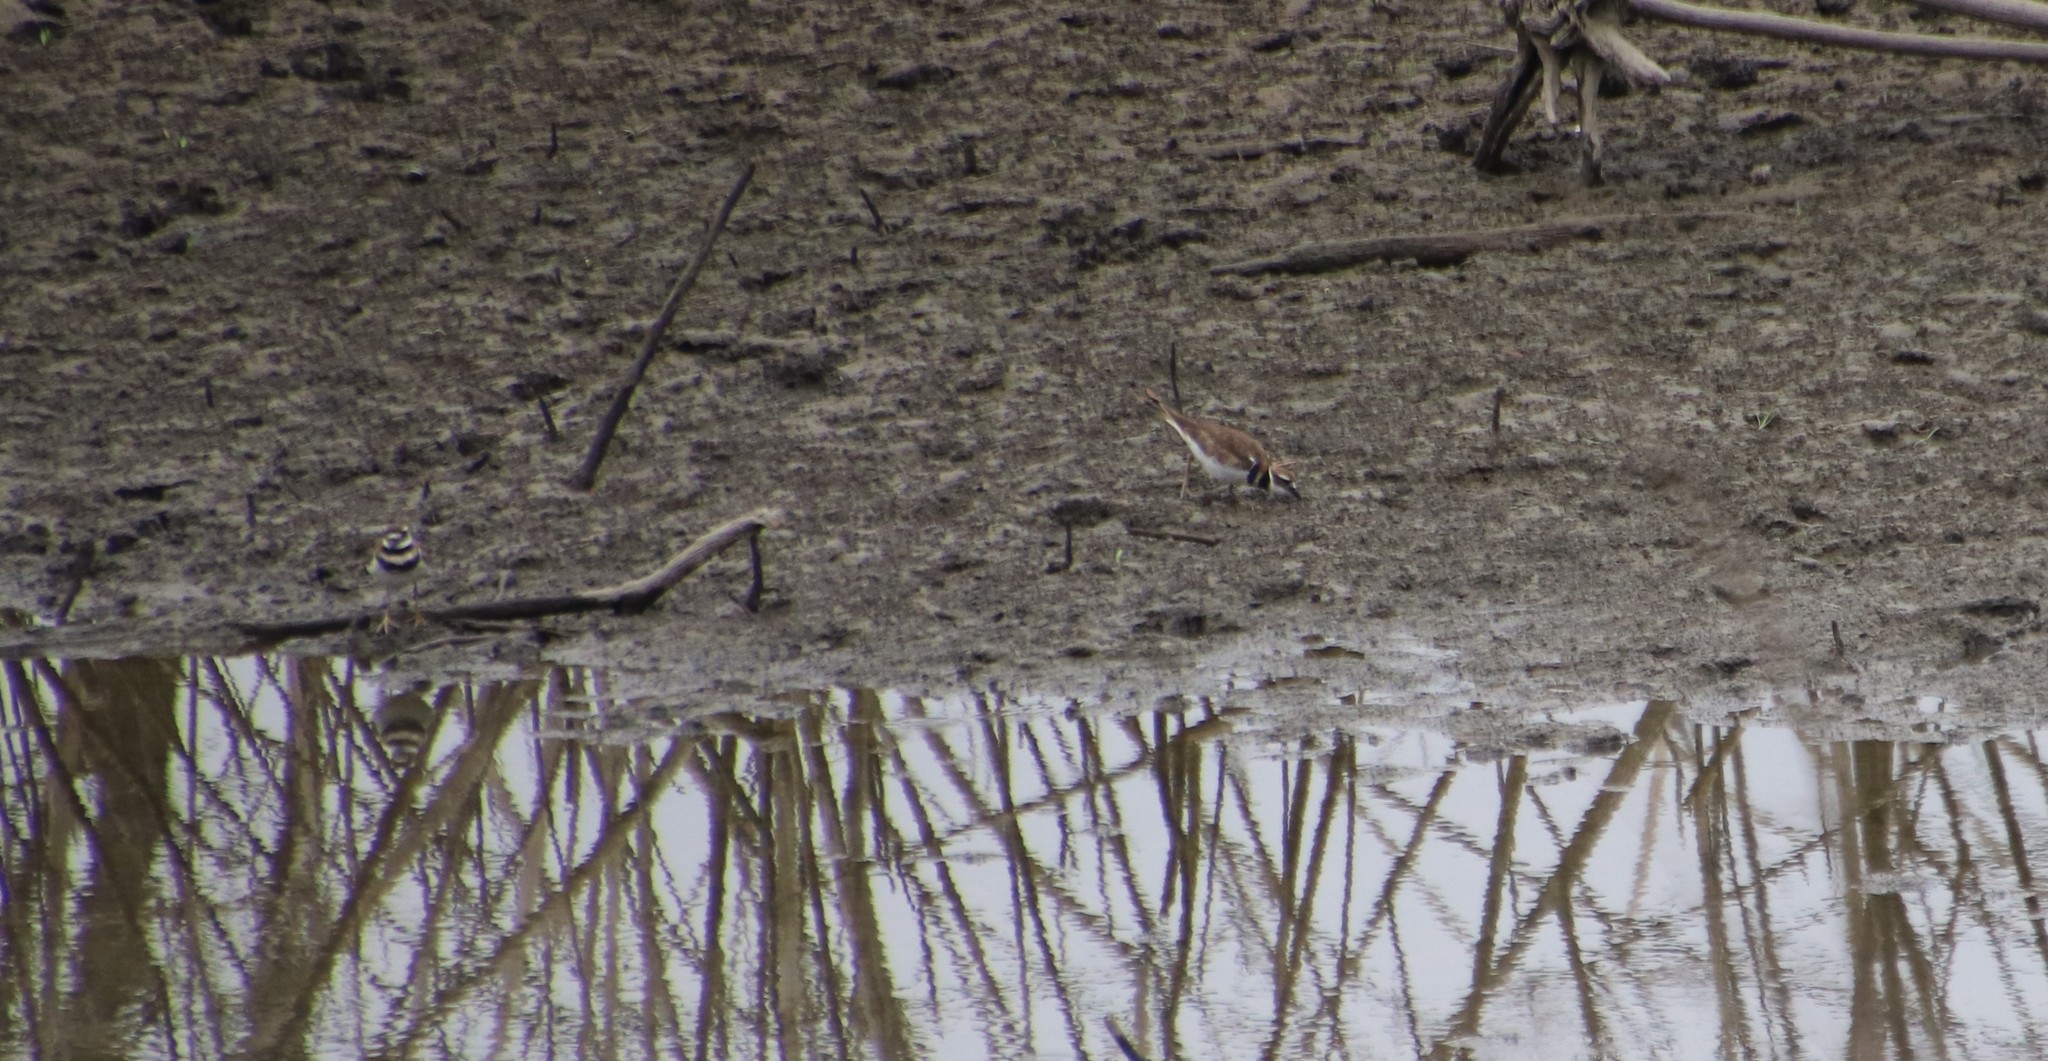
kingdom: Animalia
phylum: Chordata
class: Aves
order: Charadriiformes
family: Charadriidae
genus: Charadrius
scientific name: Charadrius vociferus
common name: Killdeer
